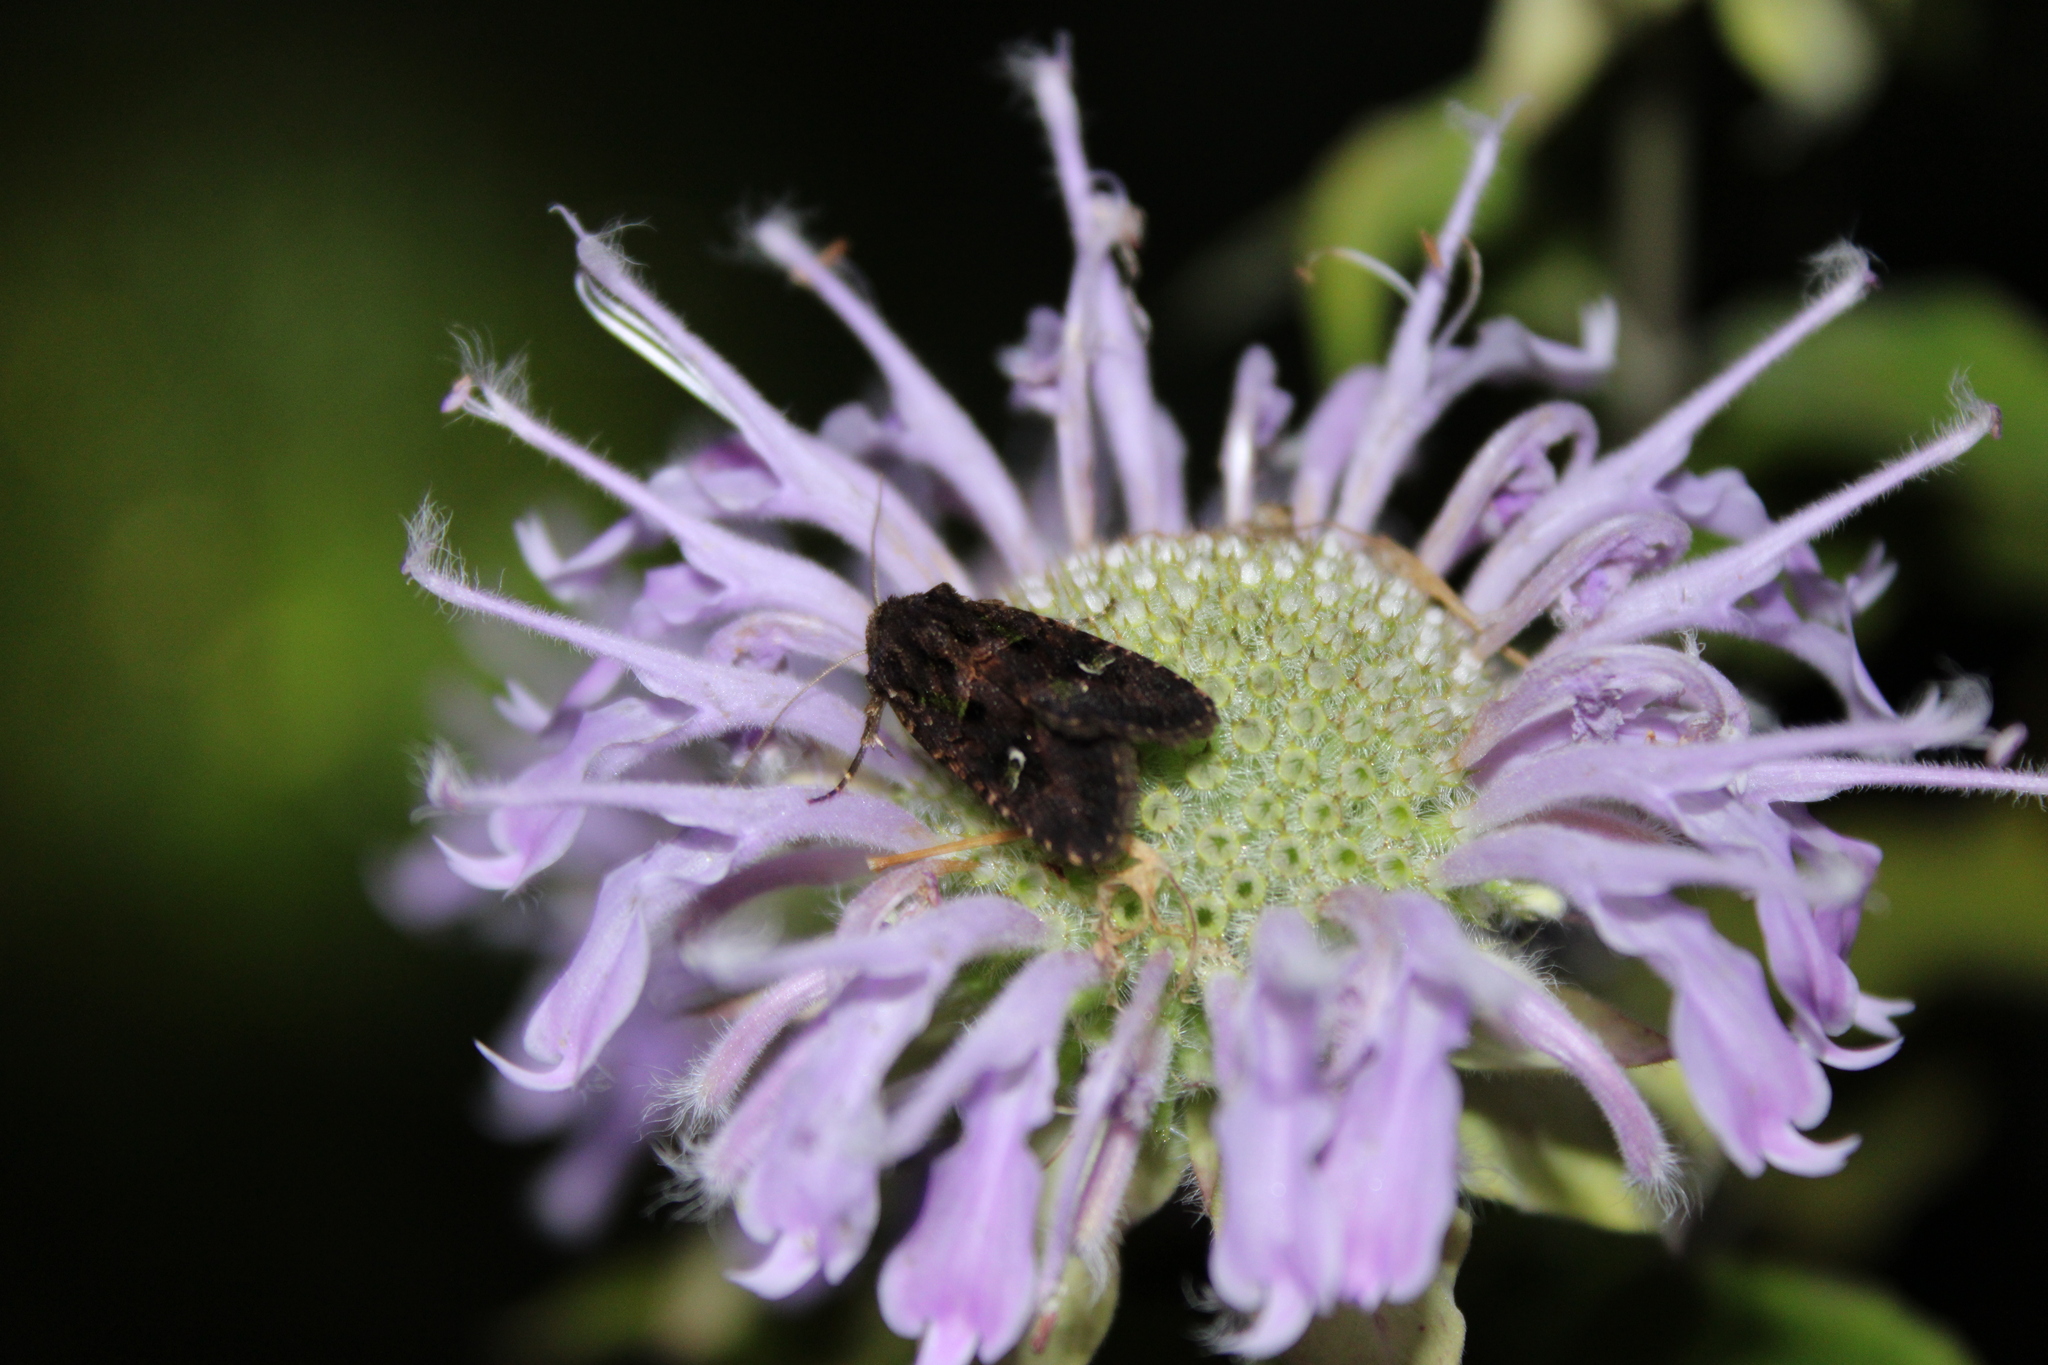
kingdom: Animalia
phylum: Arthropoda
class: Insecta
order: Lepidoptera
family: Noctuidae
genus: Lacinipolia
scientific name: Lacinipolia renigera
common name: Kidney-spotted minor
